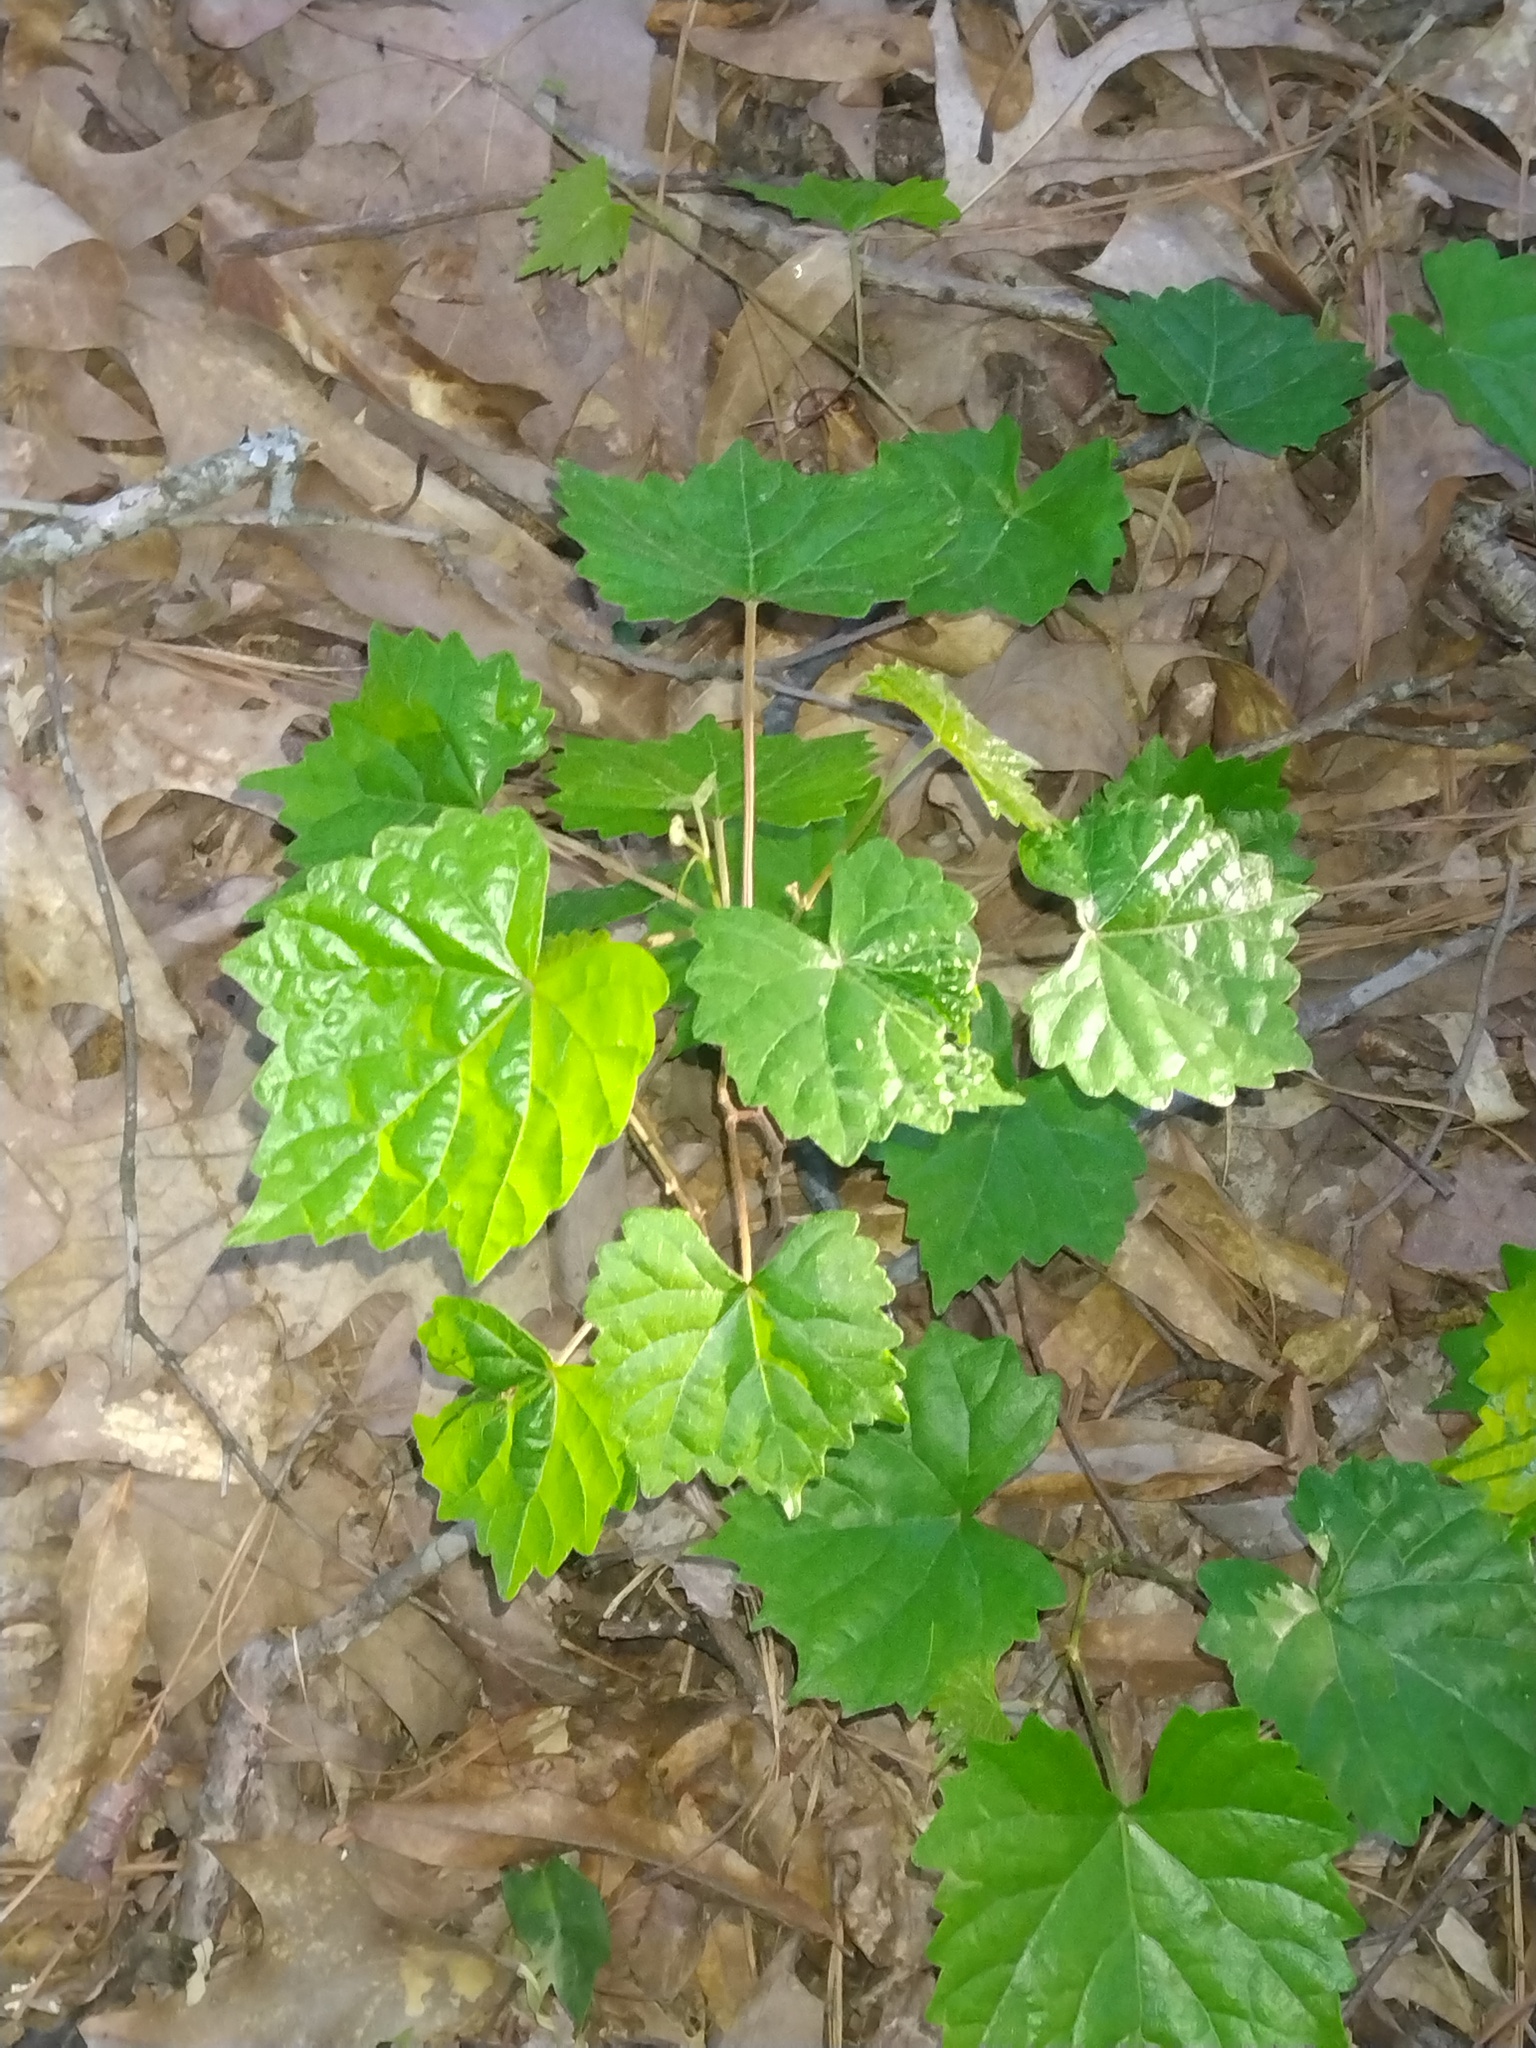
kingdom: Plantae
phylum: Tracheophyta
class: Magnoliopsida
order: Vitales
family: Vitaceae
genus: Vitis
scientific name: Vitis rotundifolia
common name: Muscadine grape
